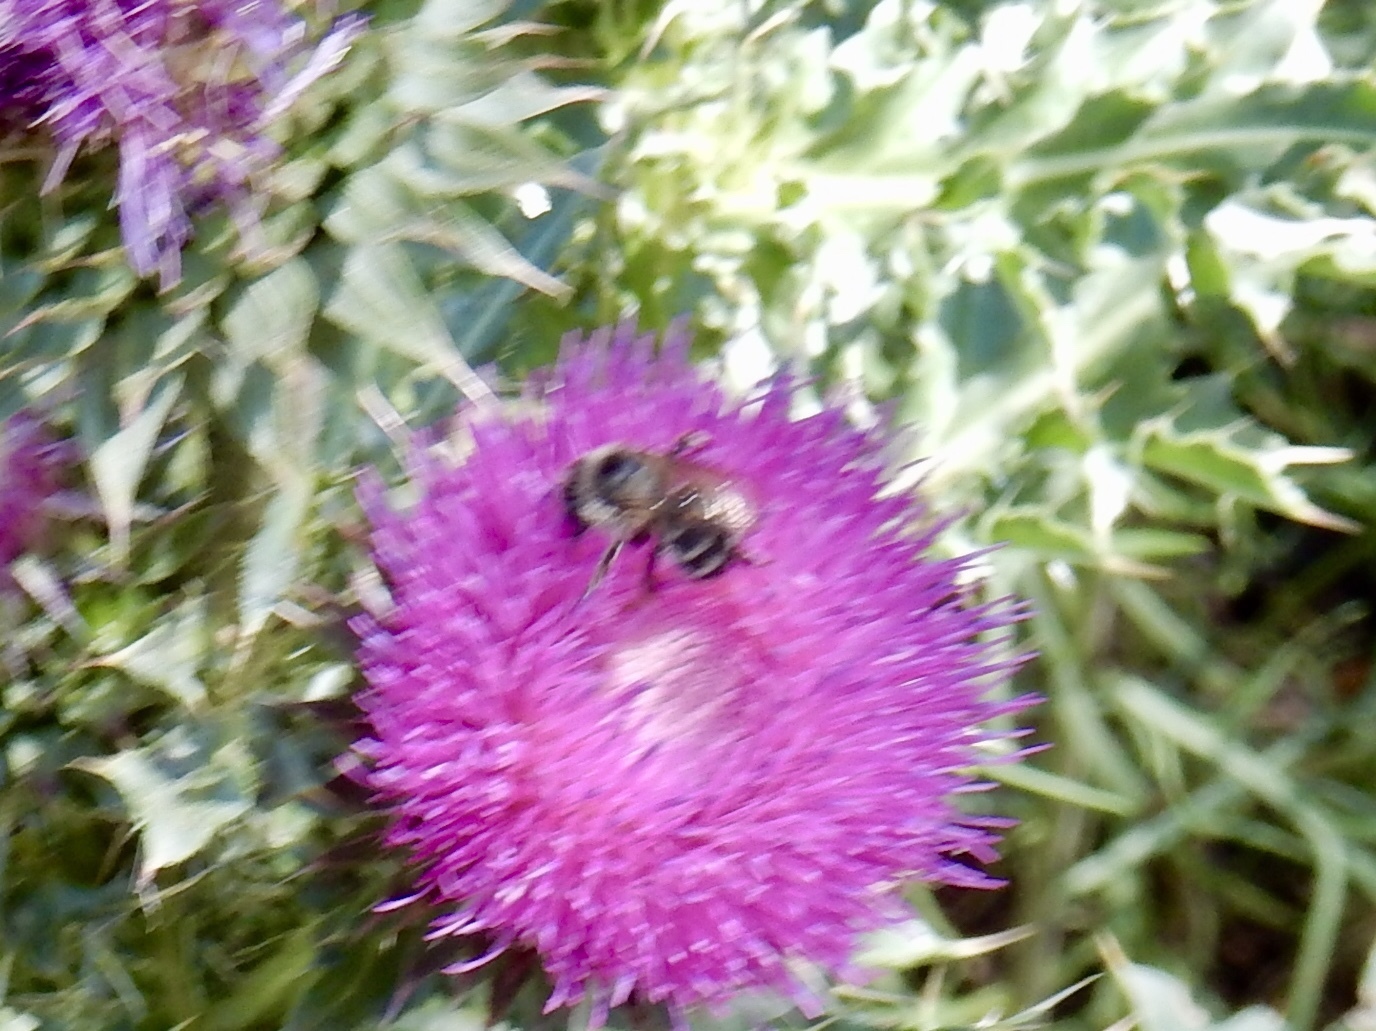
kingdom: Animalia
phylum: Arthropoda
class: Insecta
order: Hymenoptera
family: Apidae
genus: Anthophora
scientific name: Anthophora terminalis
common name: Orange-tipped wood-digger bee
